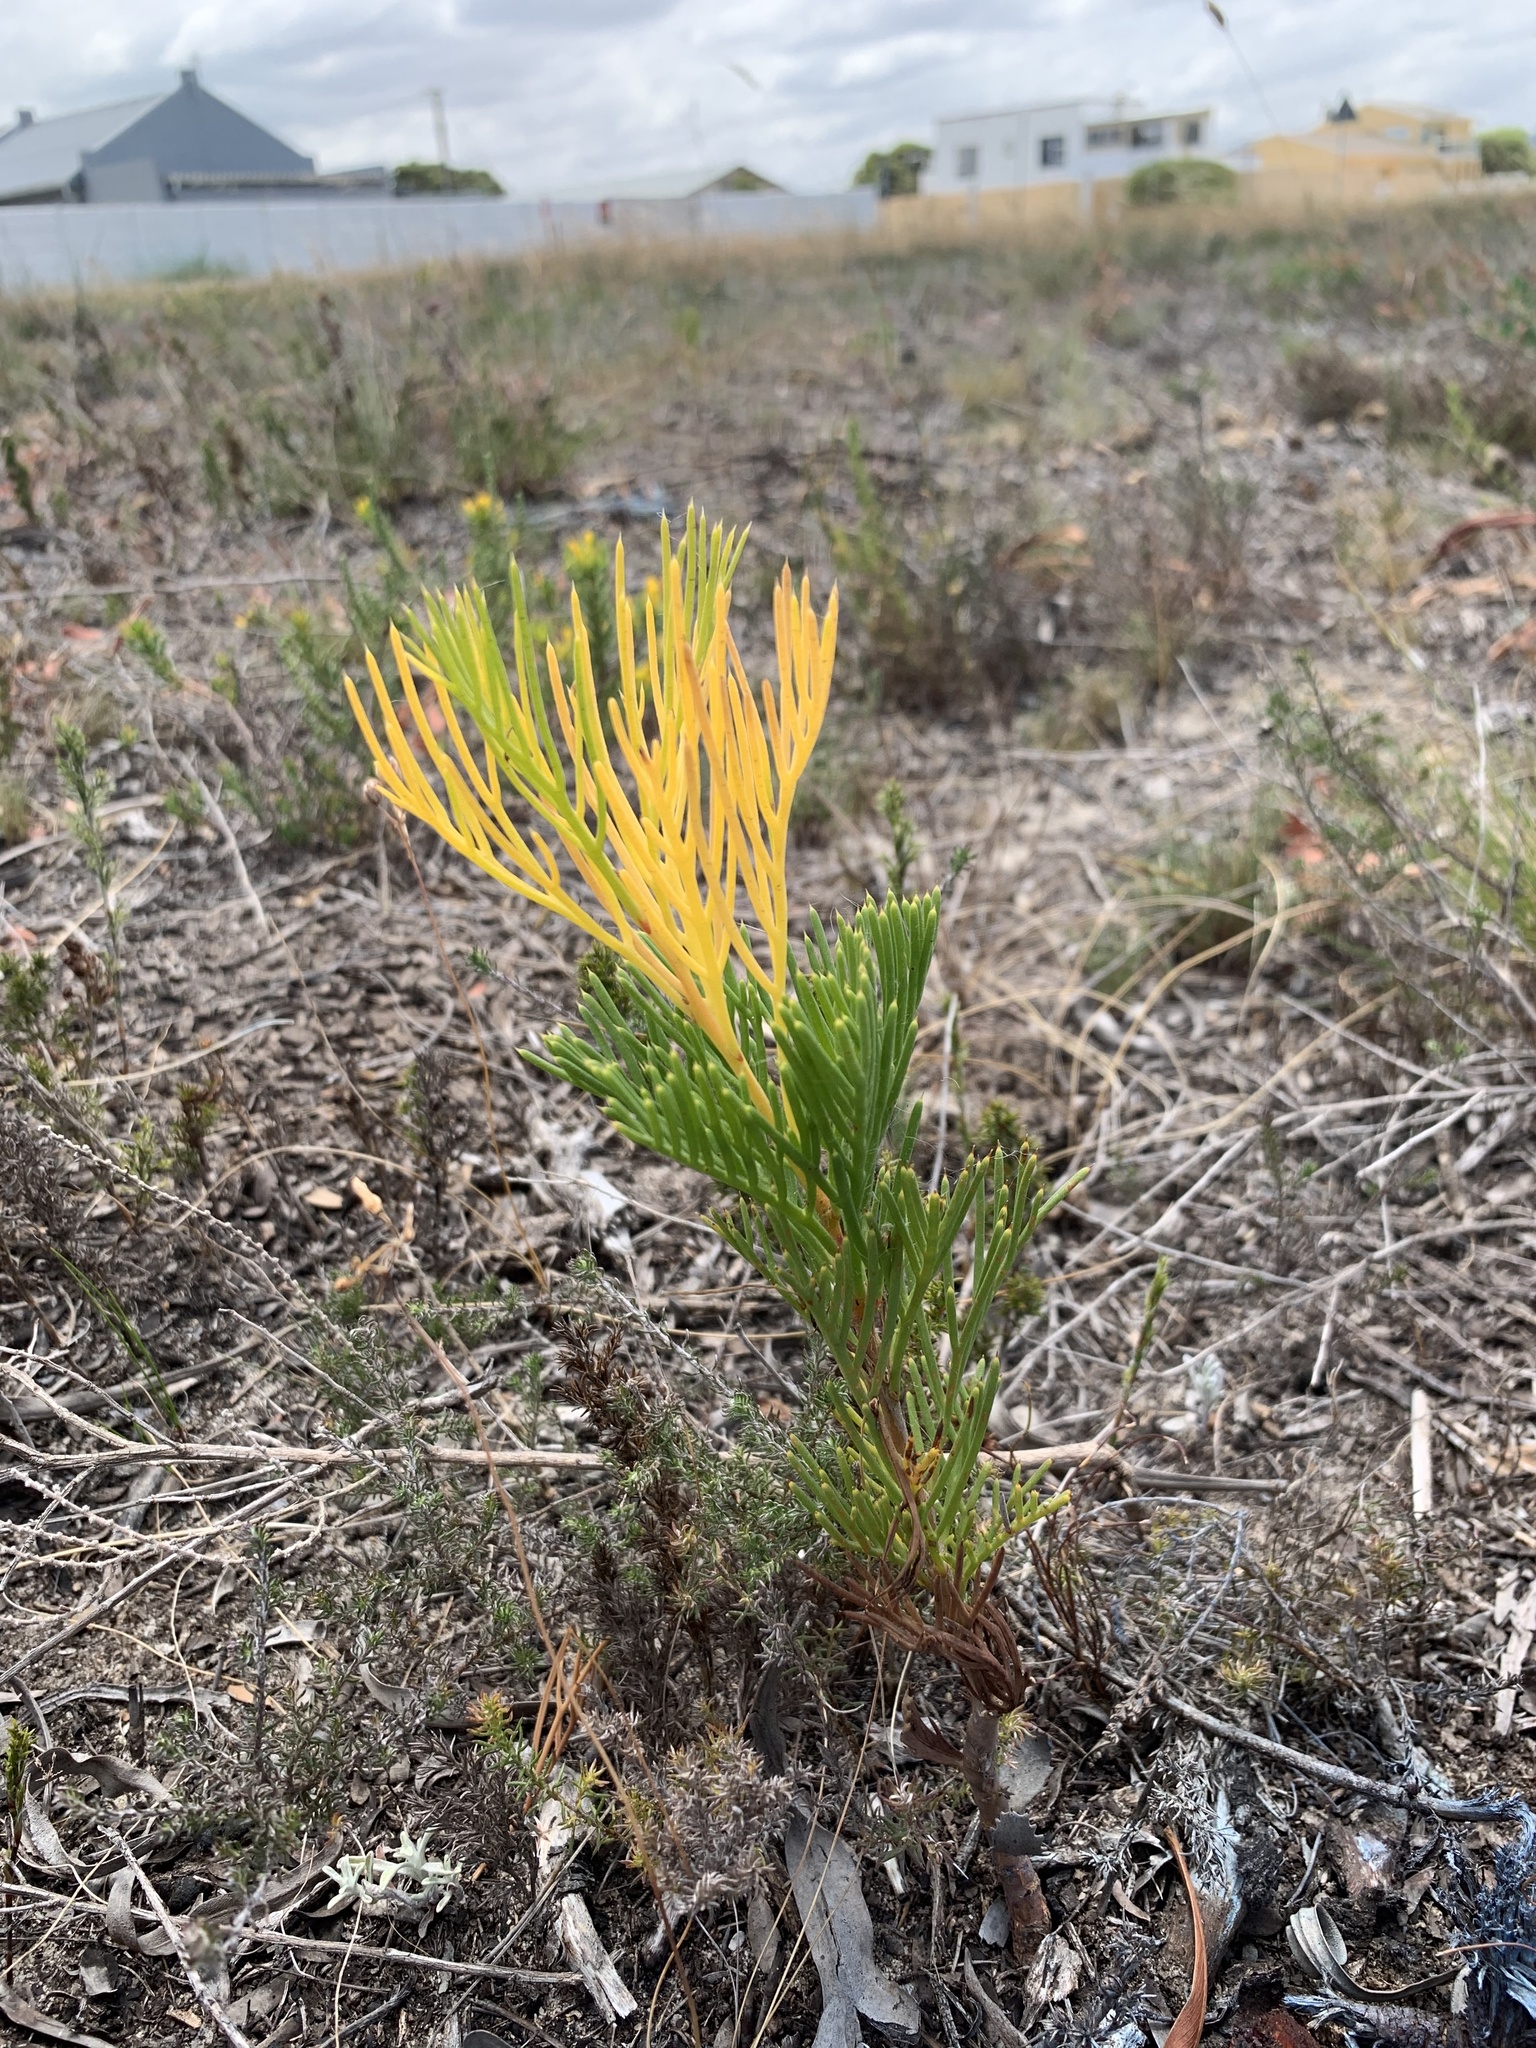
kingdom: Plantae
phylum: Tracheophyta
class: Magnoliopsida
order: Proteales
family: Proteaceae
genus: Hakea
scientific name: Hakea drupacea
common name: Sweet hakea
